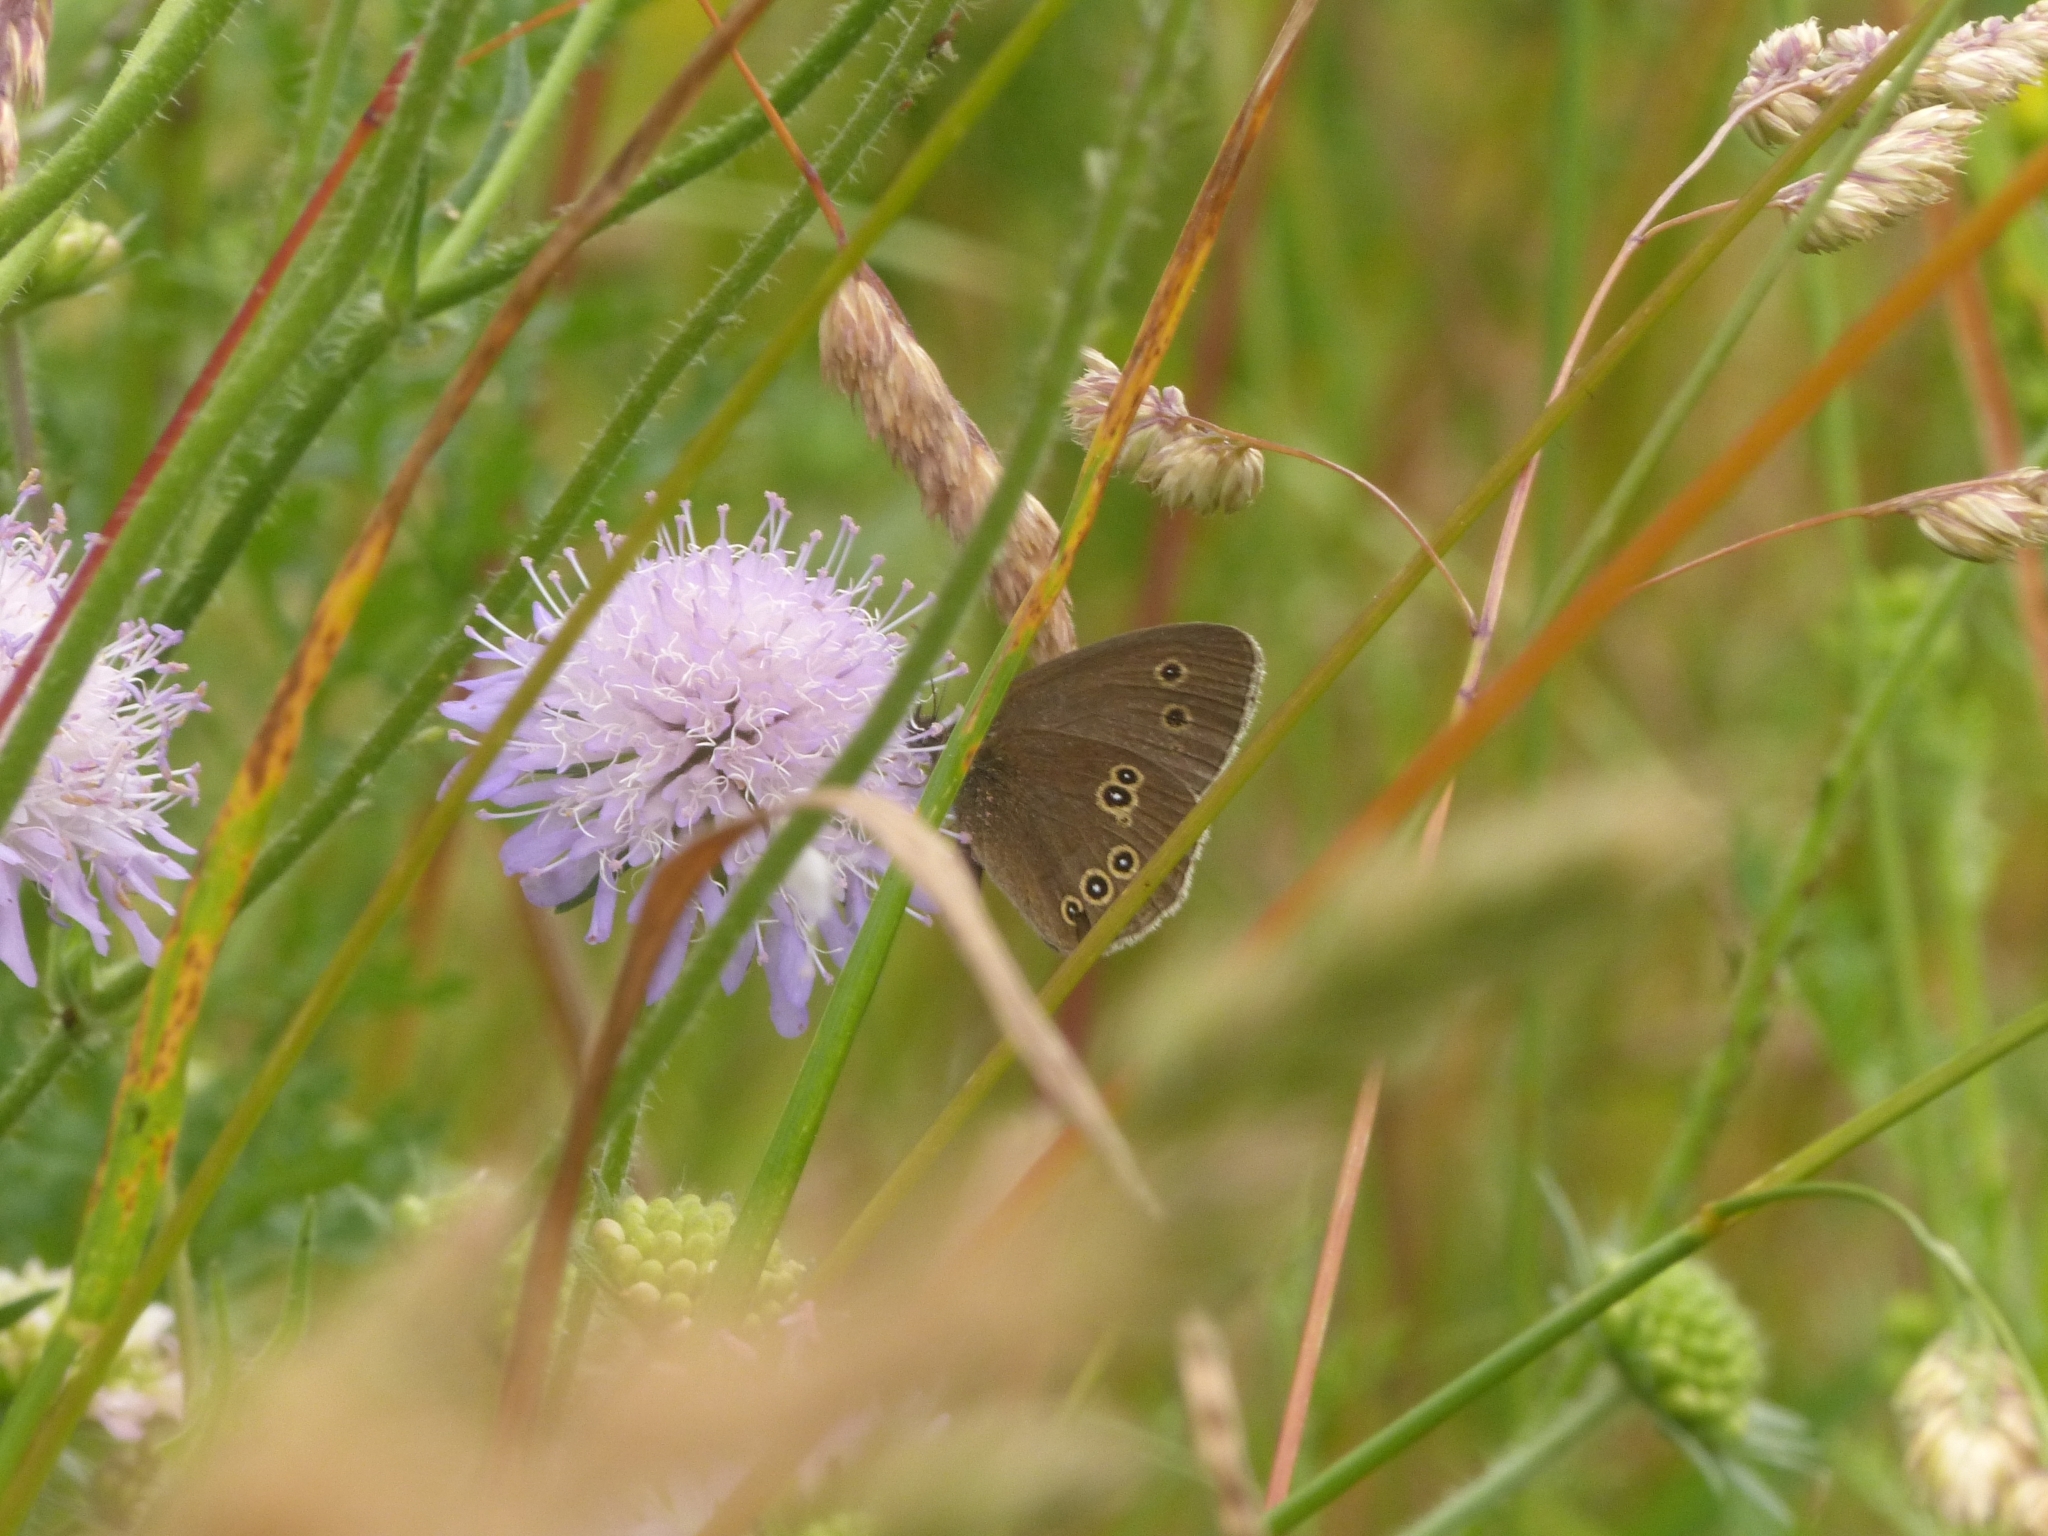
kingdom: Animalia
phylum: Arthropoda
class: Insecta
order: Lepidoptera
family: Nymphalidae
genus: Aphantopus
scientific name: Aphantopus hyperantus
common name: Ringlet
